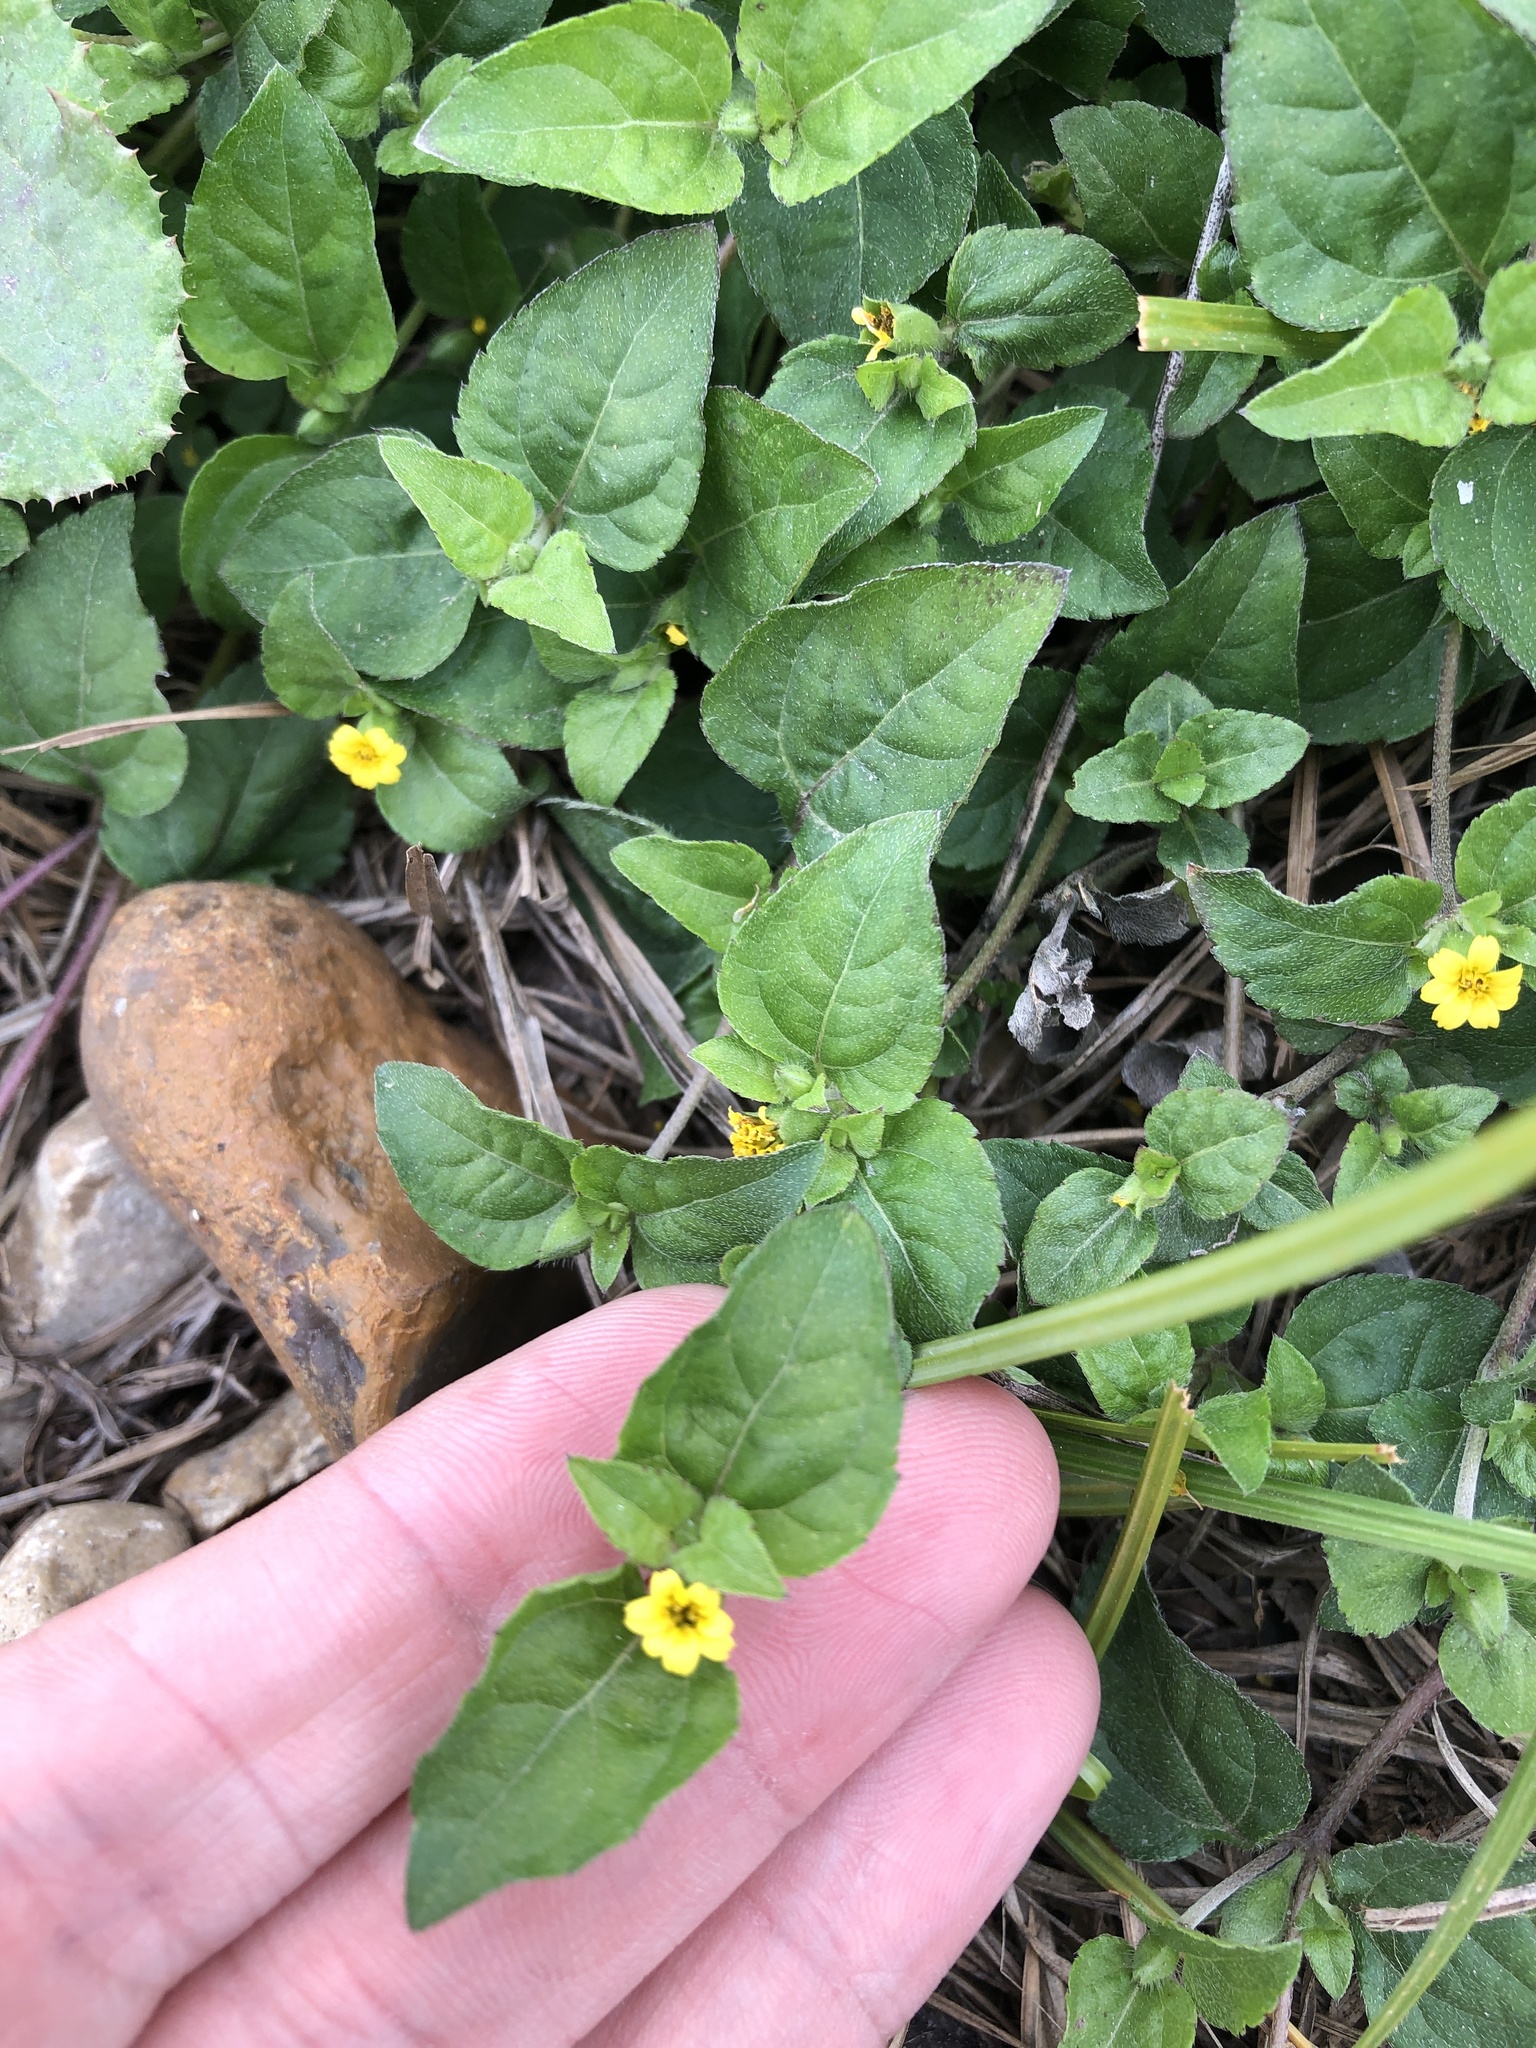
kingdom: Plantae
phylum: Tracheophyta
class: Magnoliopsida
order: Asterales
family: Asteraceae
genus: Calyptocarpus
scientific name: Calyptocarpus vialis
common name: Straggler daisy
